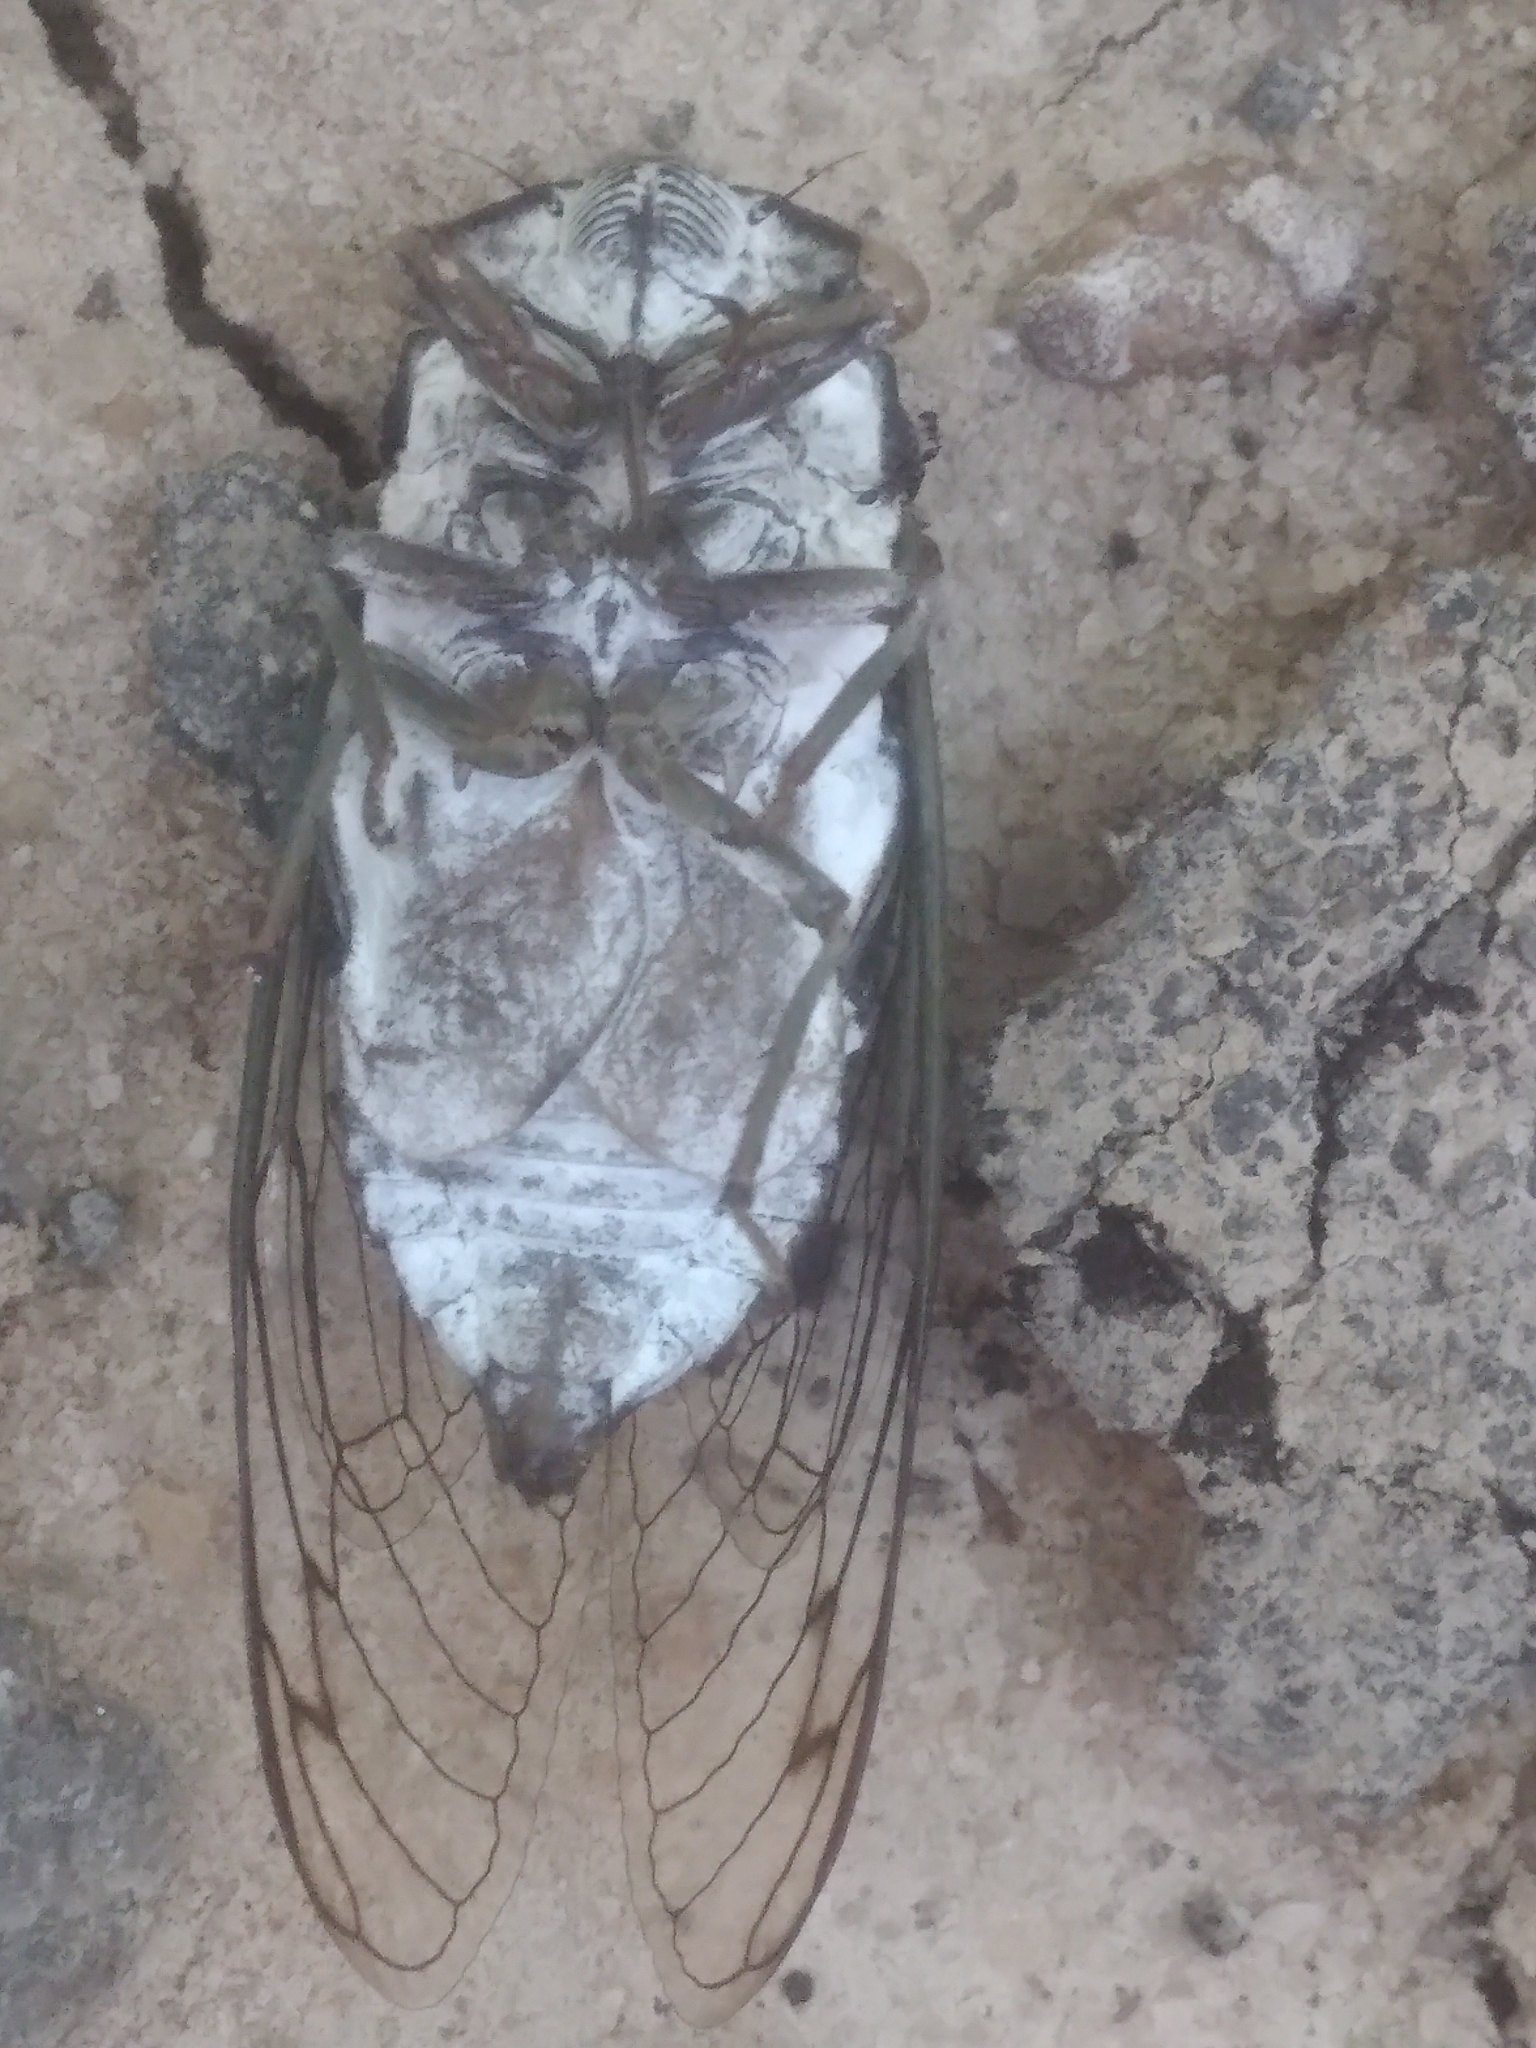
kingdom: Animalia
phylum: Arthropoda
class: Insecta
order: Hemiptera
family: Cicadidae
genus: Neotibicen
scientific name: Neotibicen tibicen
